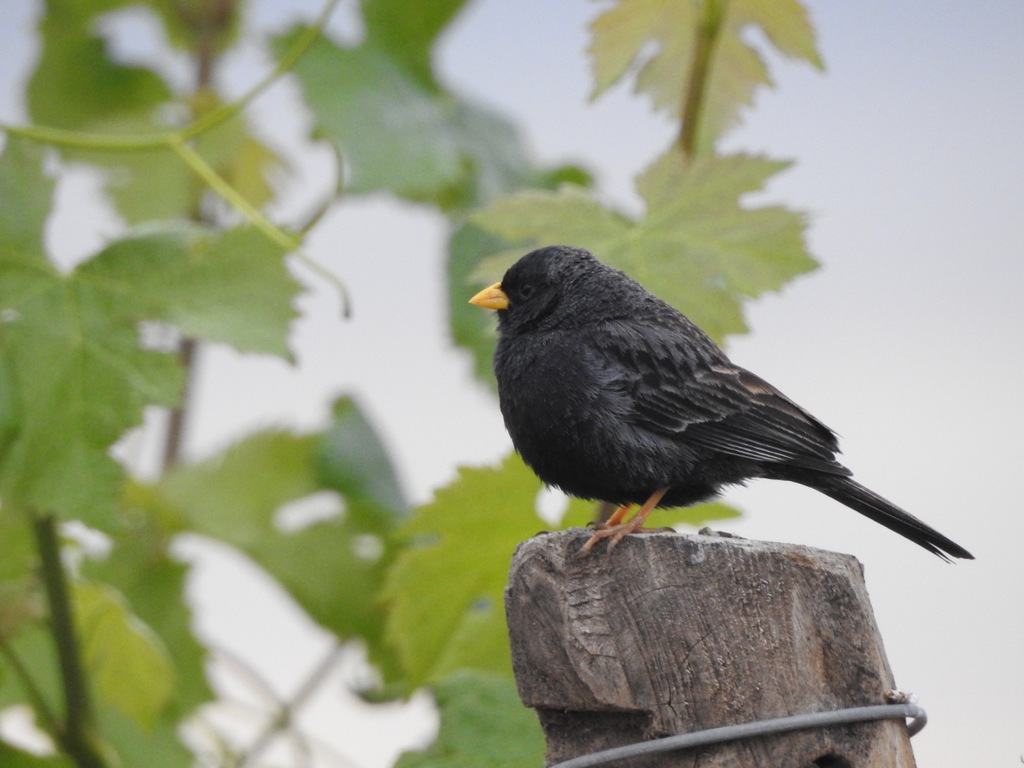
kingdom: Animalia
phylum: Chordata
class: Aves
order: Passeriformes
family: Thraupidae
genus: Porphyrospiza
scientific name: Porphyrospiza carbonaria
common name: Carbon finch
